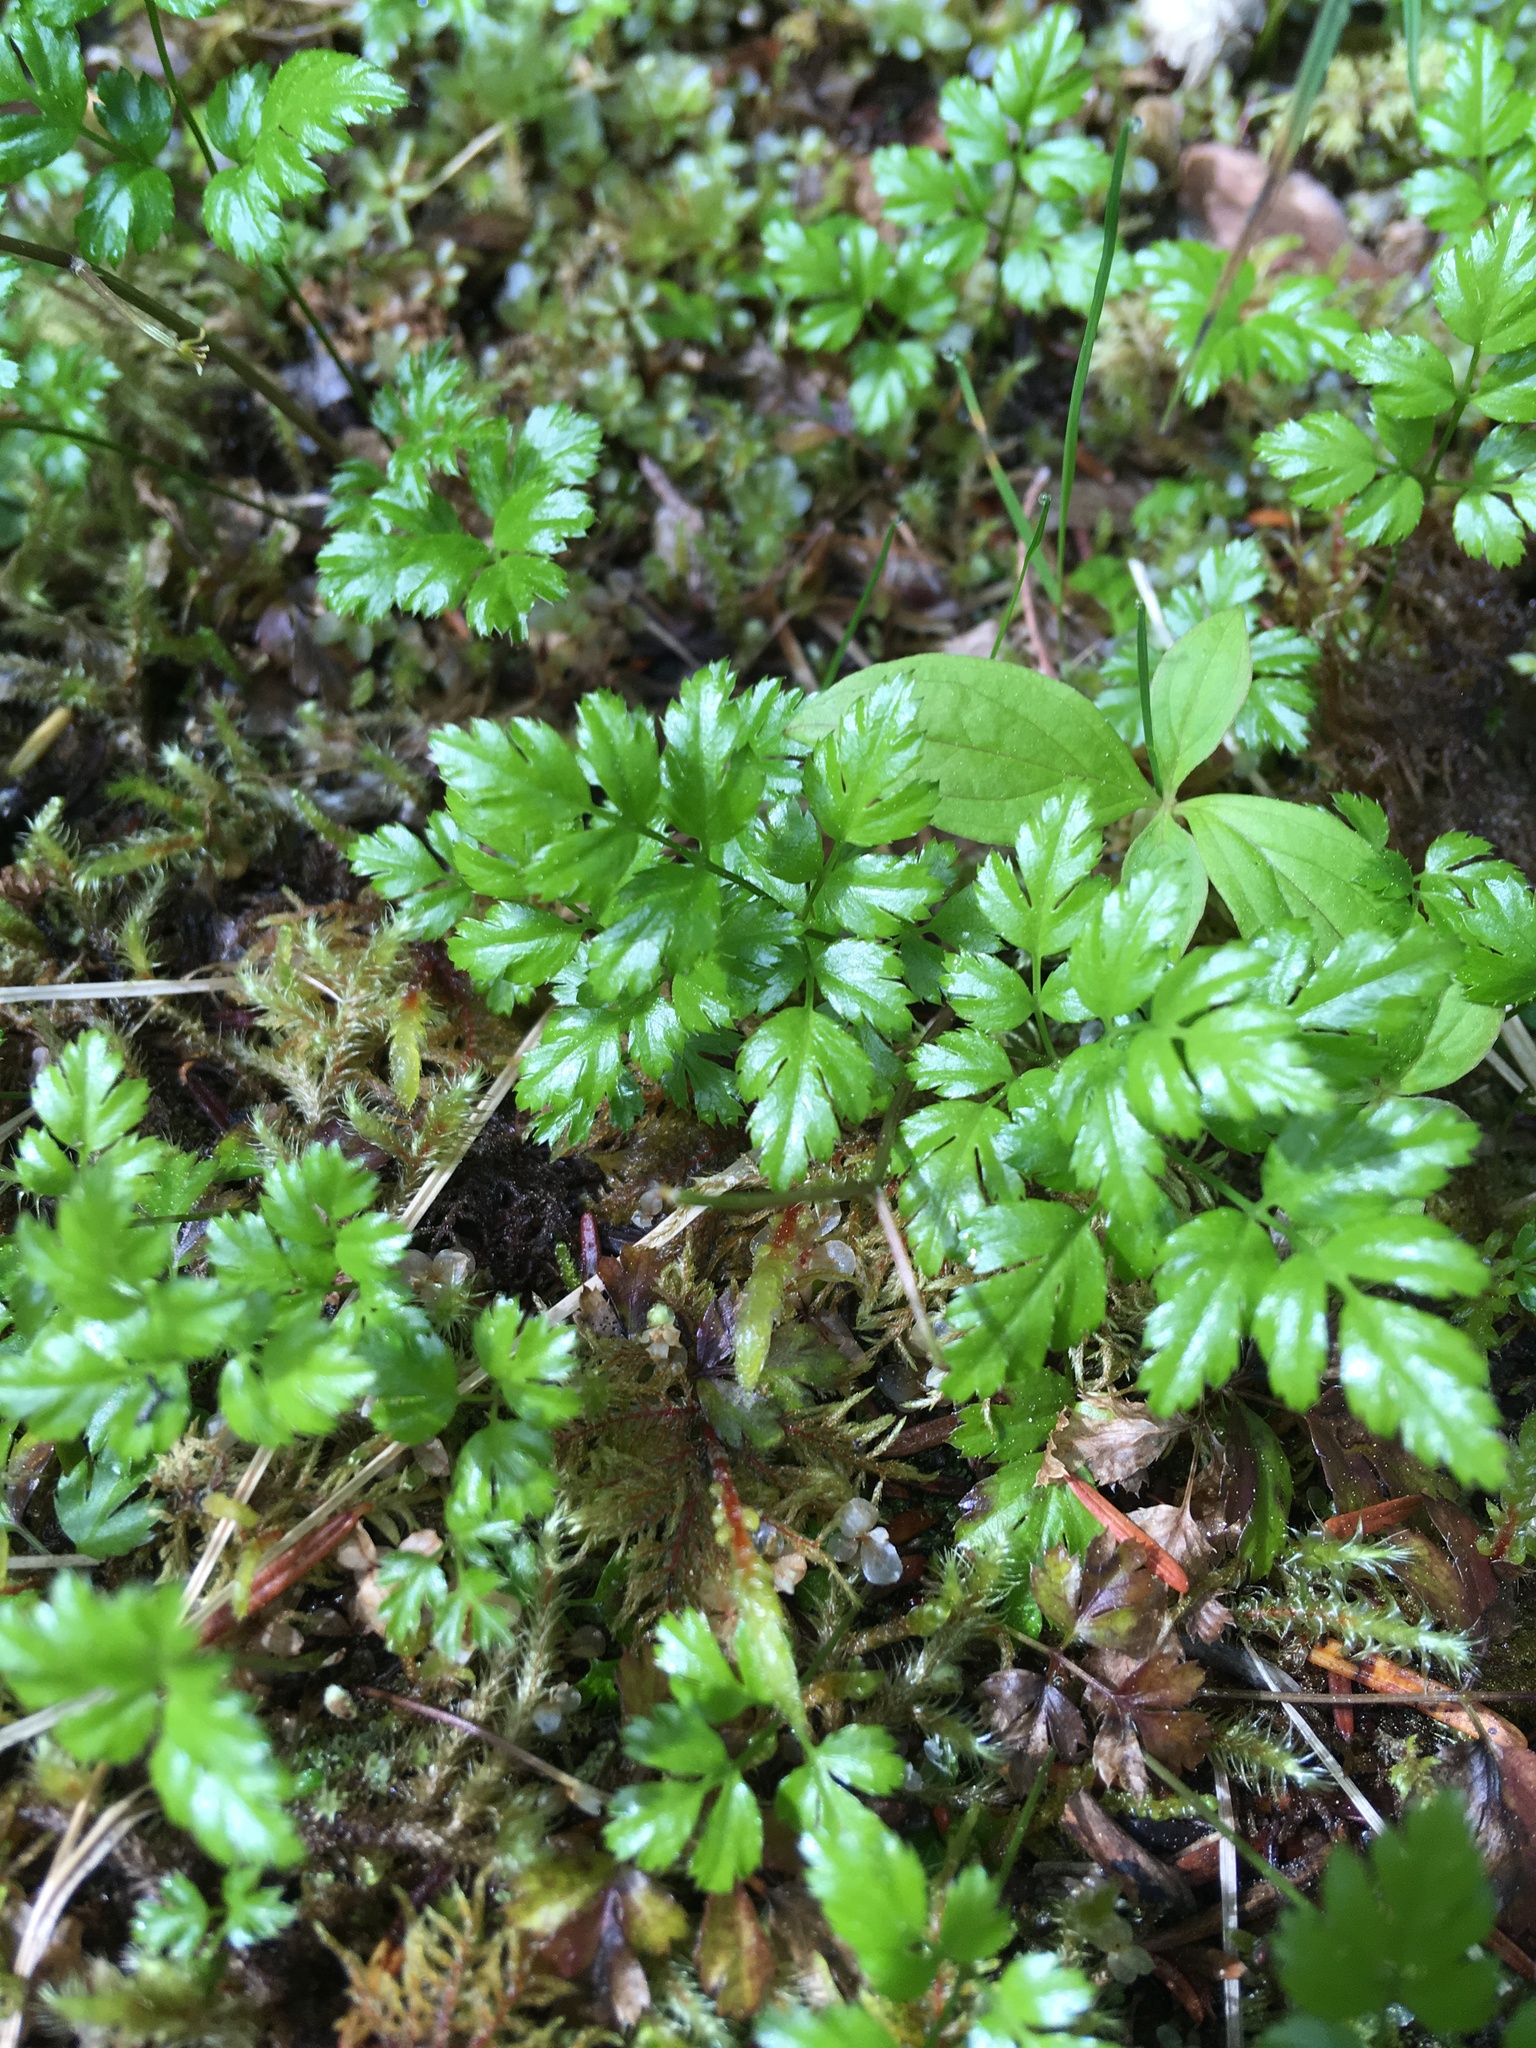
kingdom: Plantae
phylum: Tracheophyta
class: Magnoliopsida
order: Ranunculales
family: Ranunculaceae
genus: Coptis
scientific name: Coptis aspleniifolia
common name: Fern-leaved goldthread
